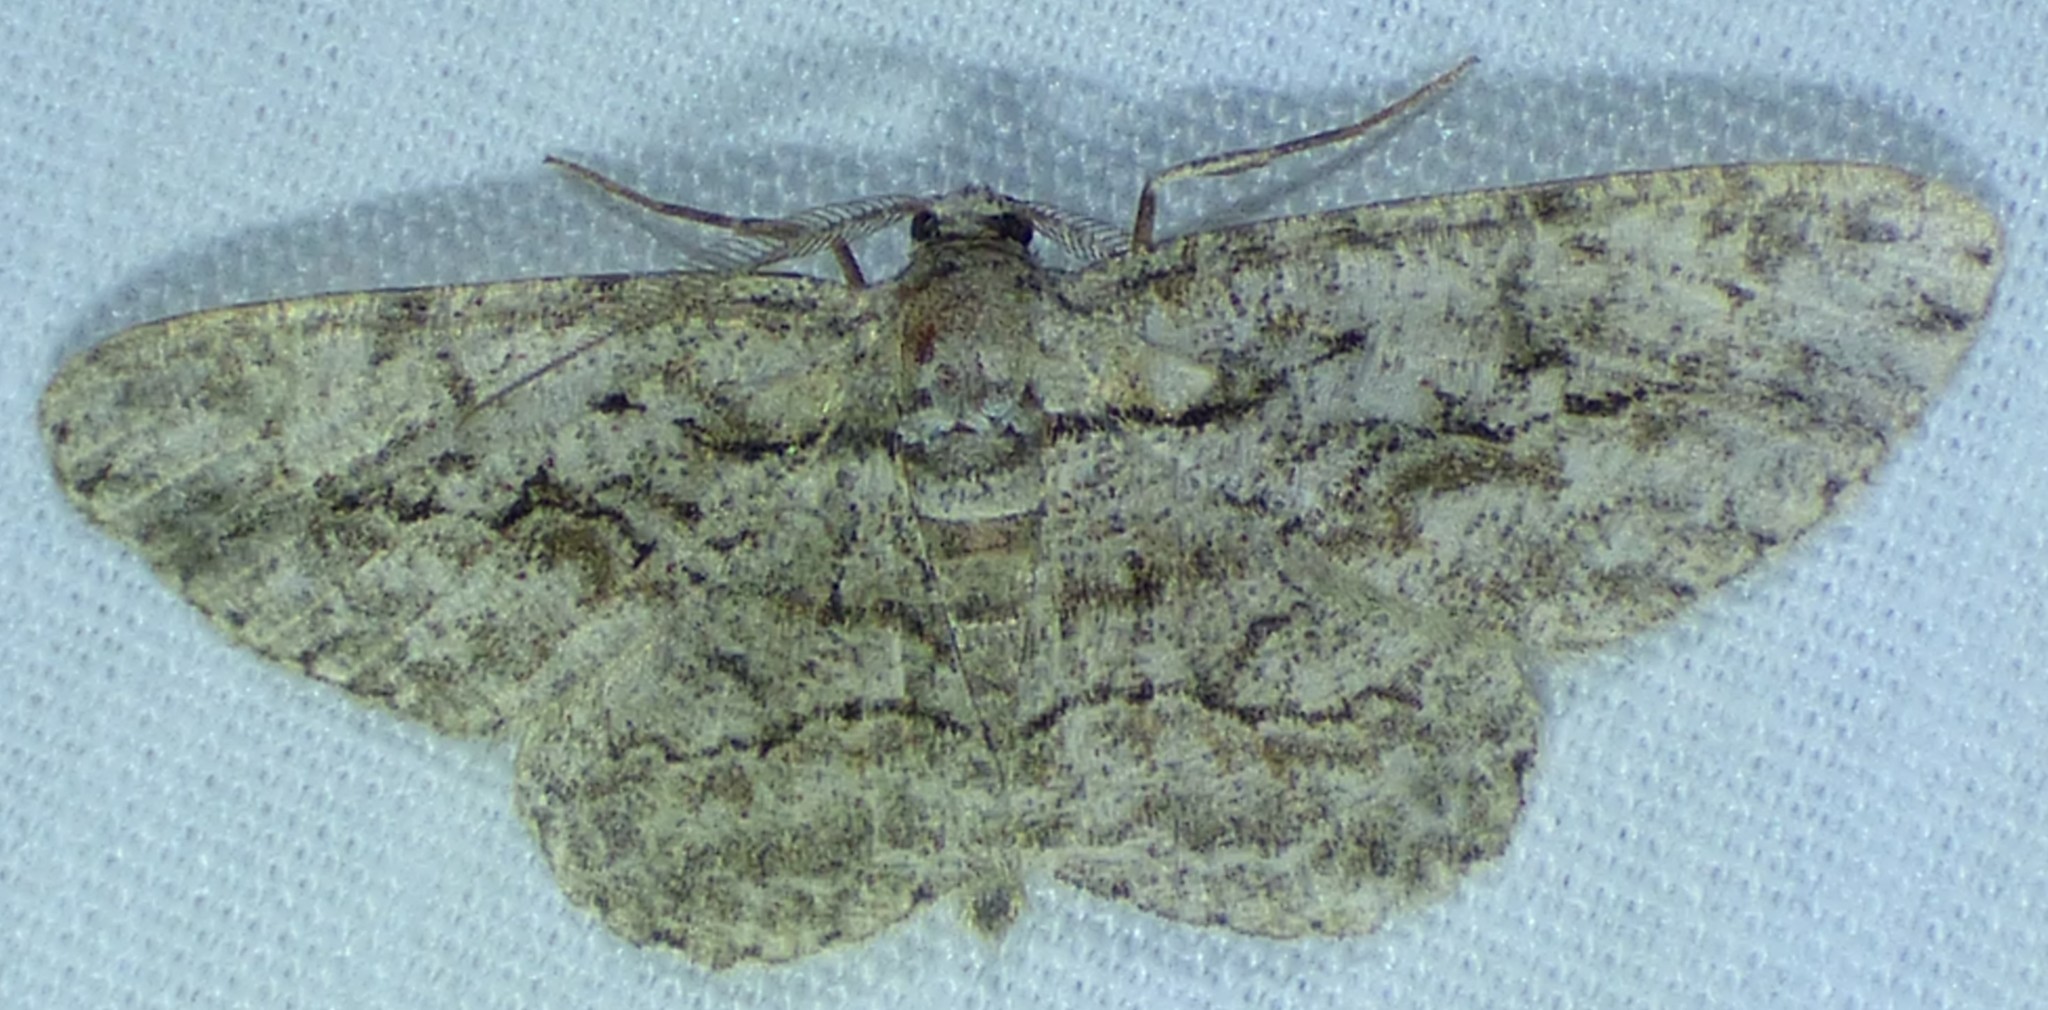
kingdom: Animalia
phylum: Arthropoda
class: Insecta
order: Lepidoptera
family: Geometridae
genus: Anavitrinella
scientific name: Anavitrinella pampinaria
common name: Common gray
